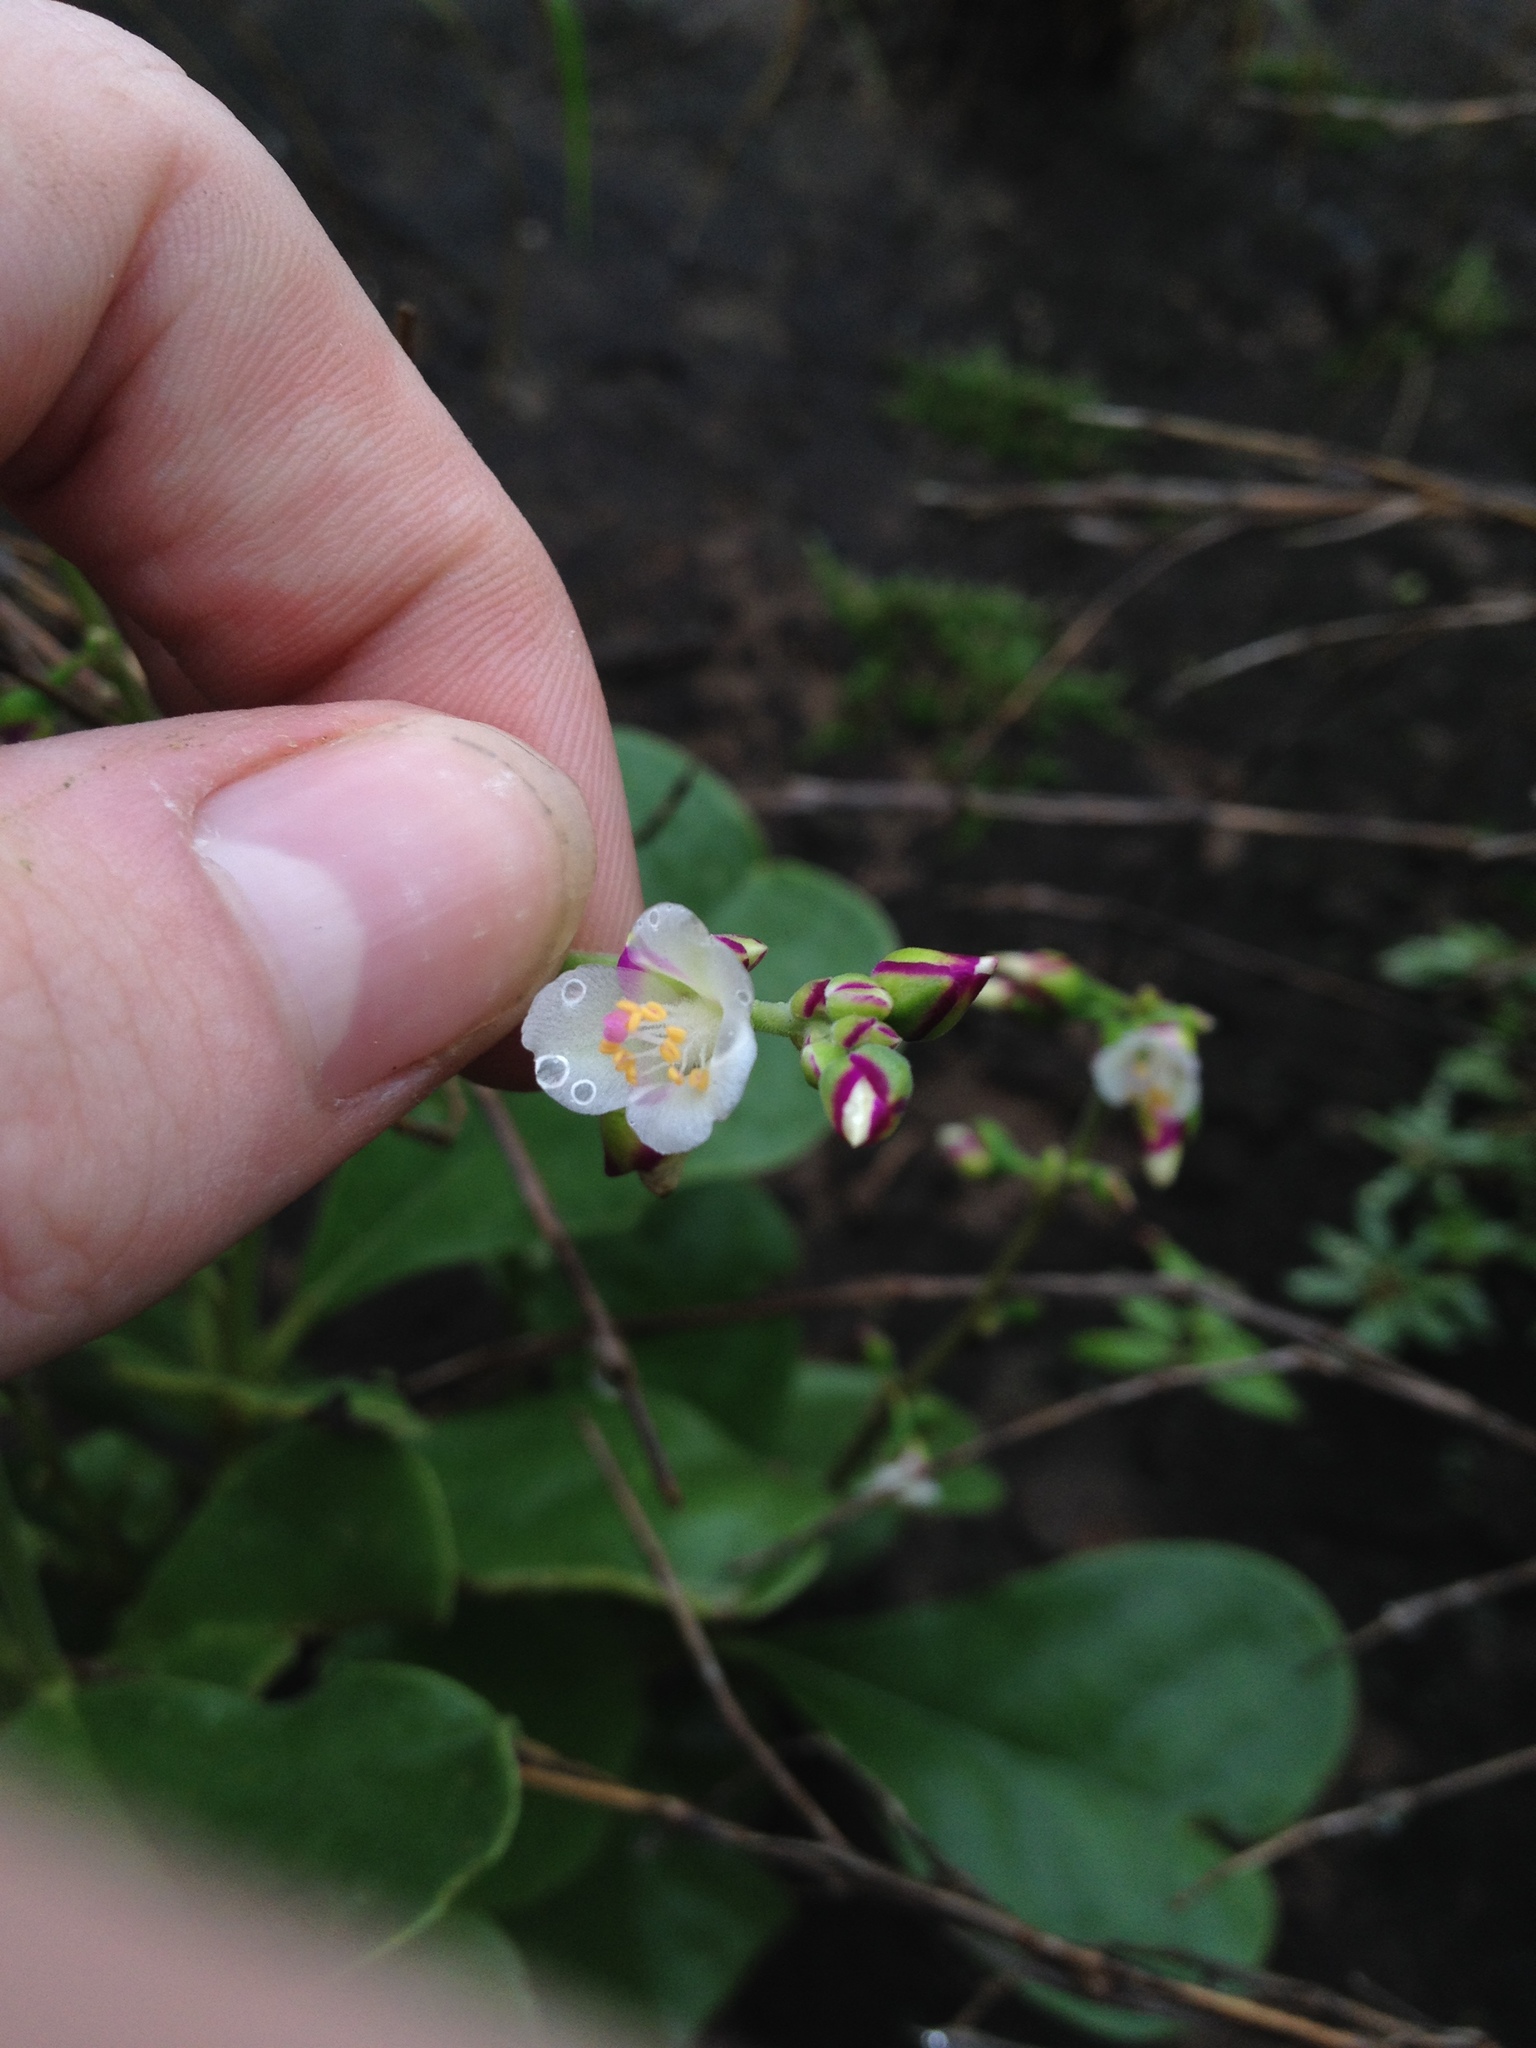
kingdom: Plantae
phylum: Tracheophyta
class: Magnoliopsida
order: Caryophyllales
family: Talinaceae
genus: Amphipetalum
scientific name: Amphipetalum paraguayense
